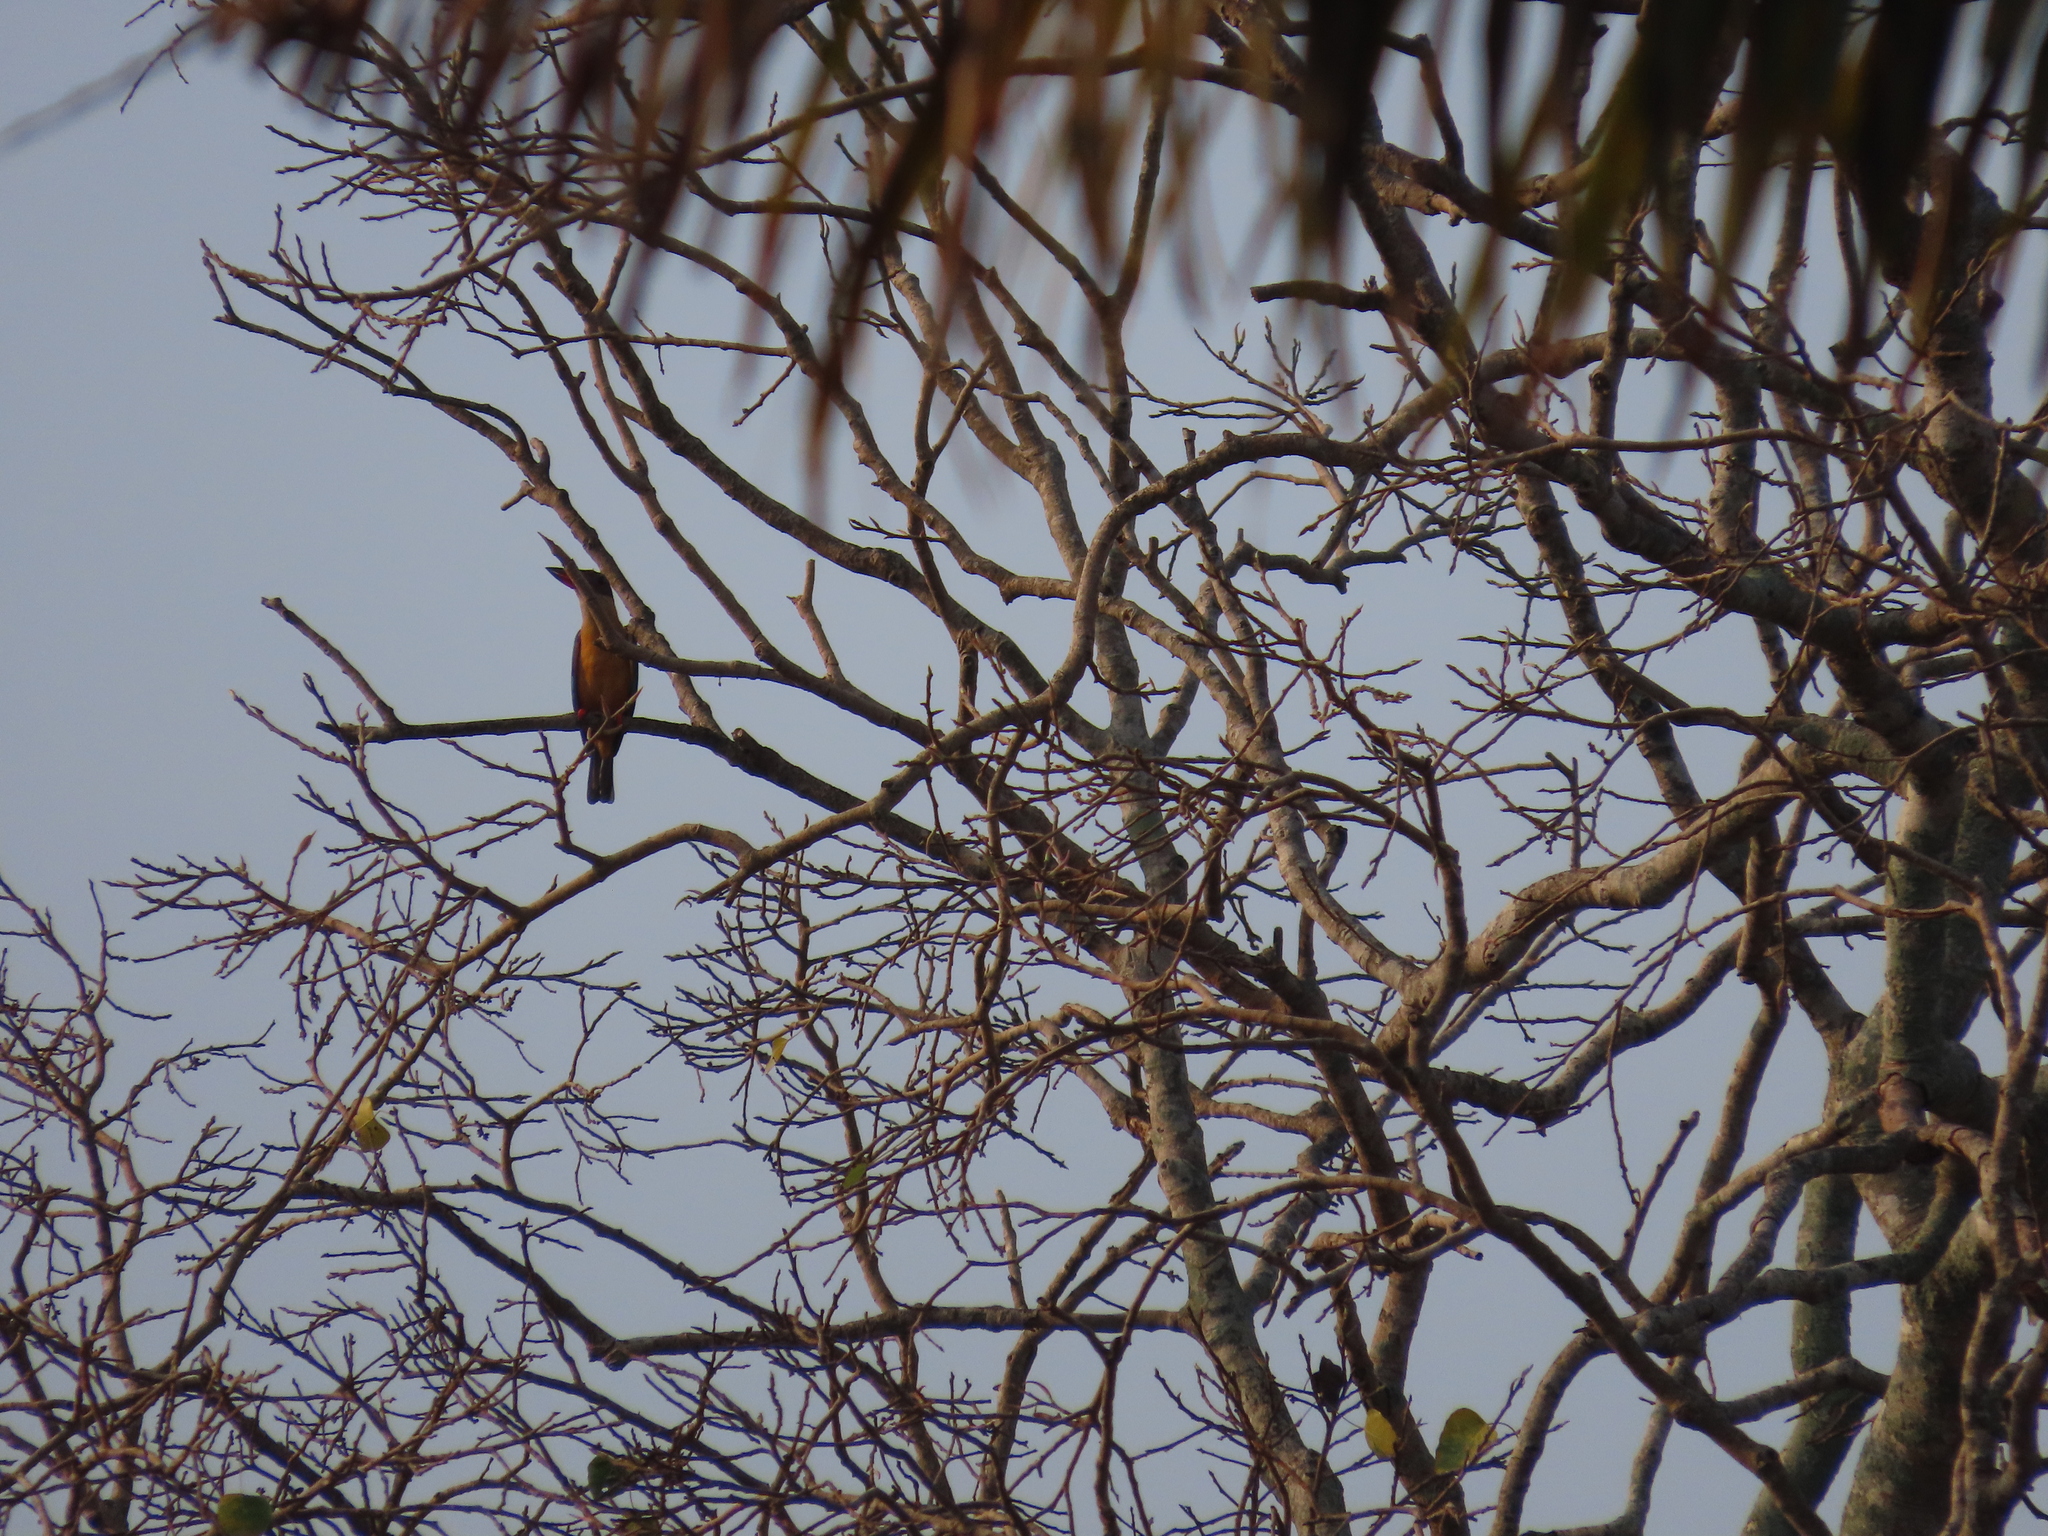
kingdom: Animalia
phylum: Chordata
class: Aves
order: Coraciiformes
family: Alcedinidae
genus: Pelargopsis
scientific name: Pelargopsis capensis
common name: Stork-billed kingfisher
